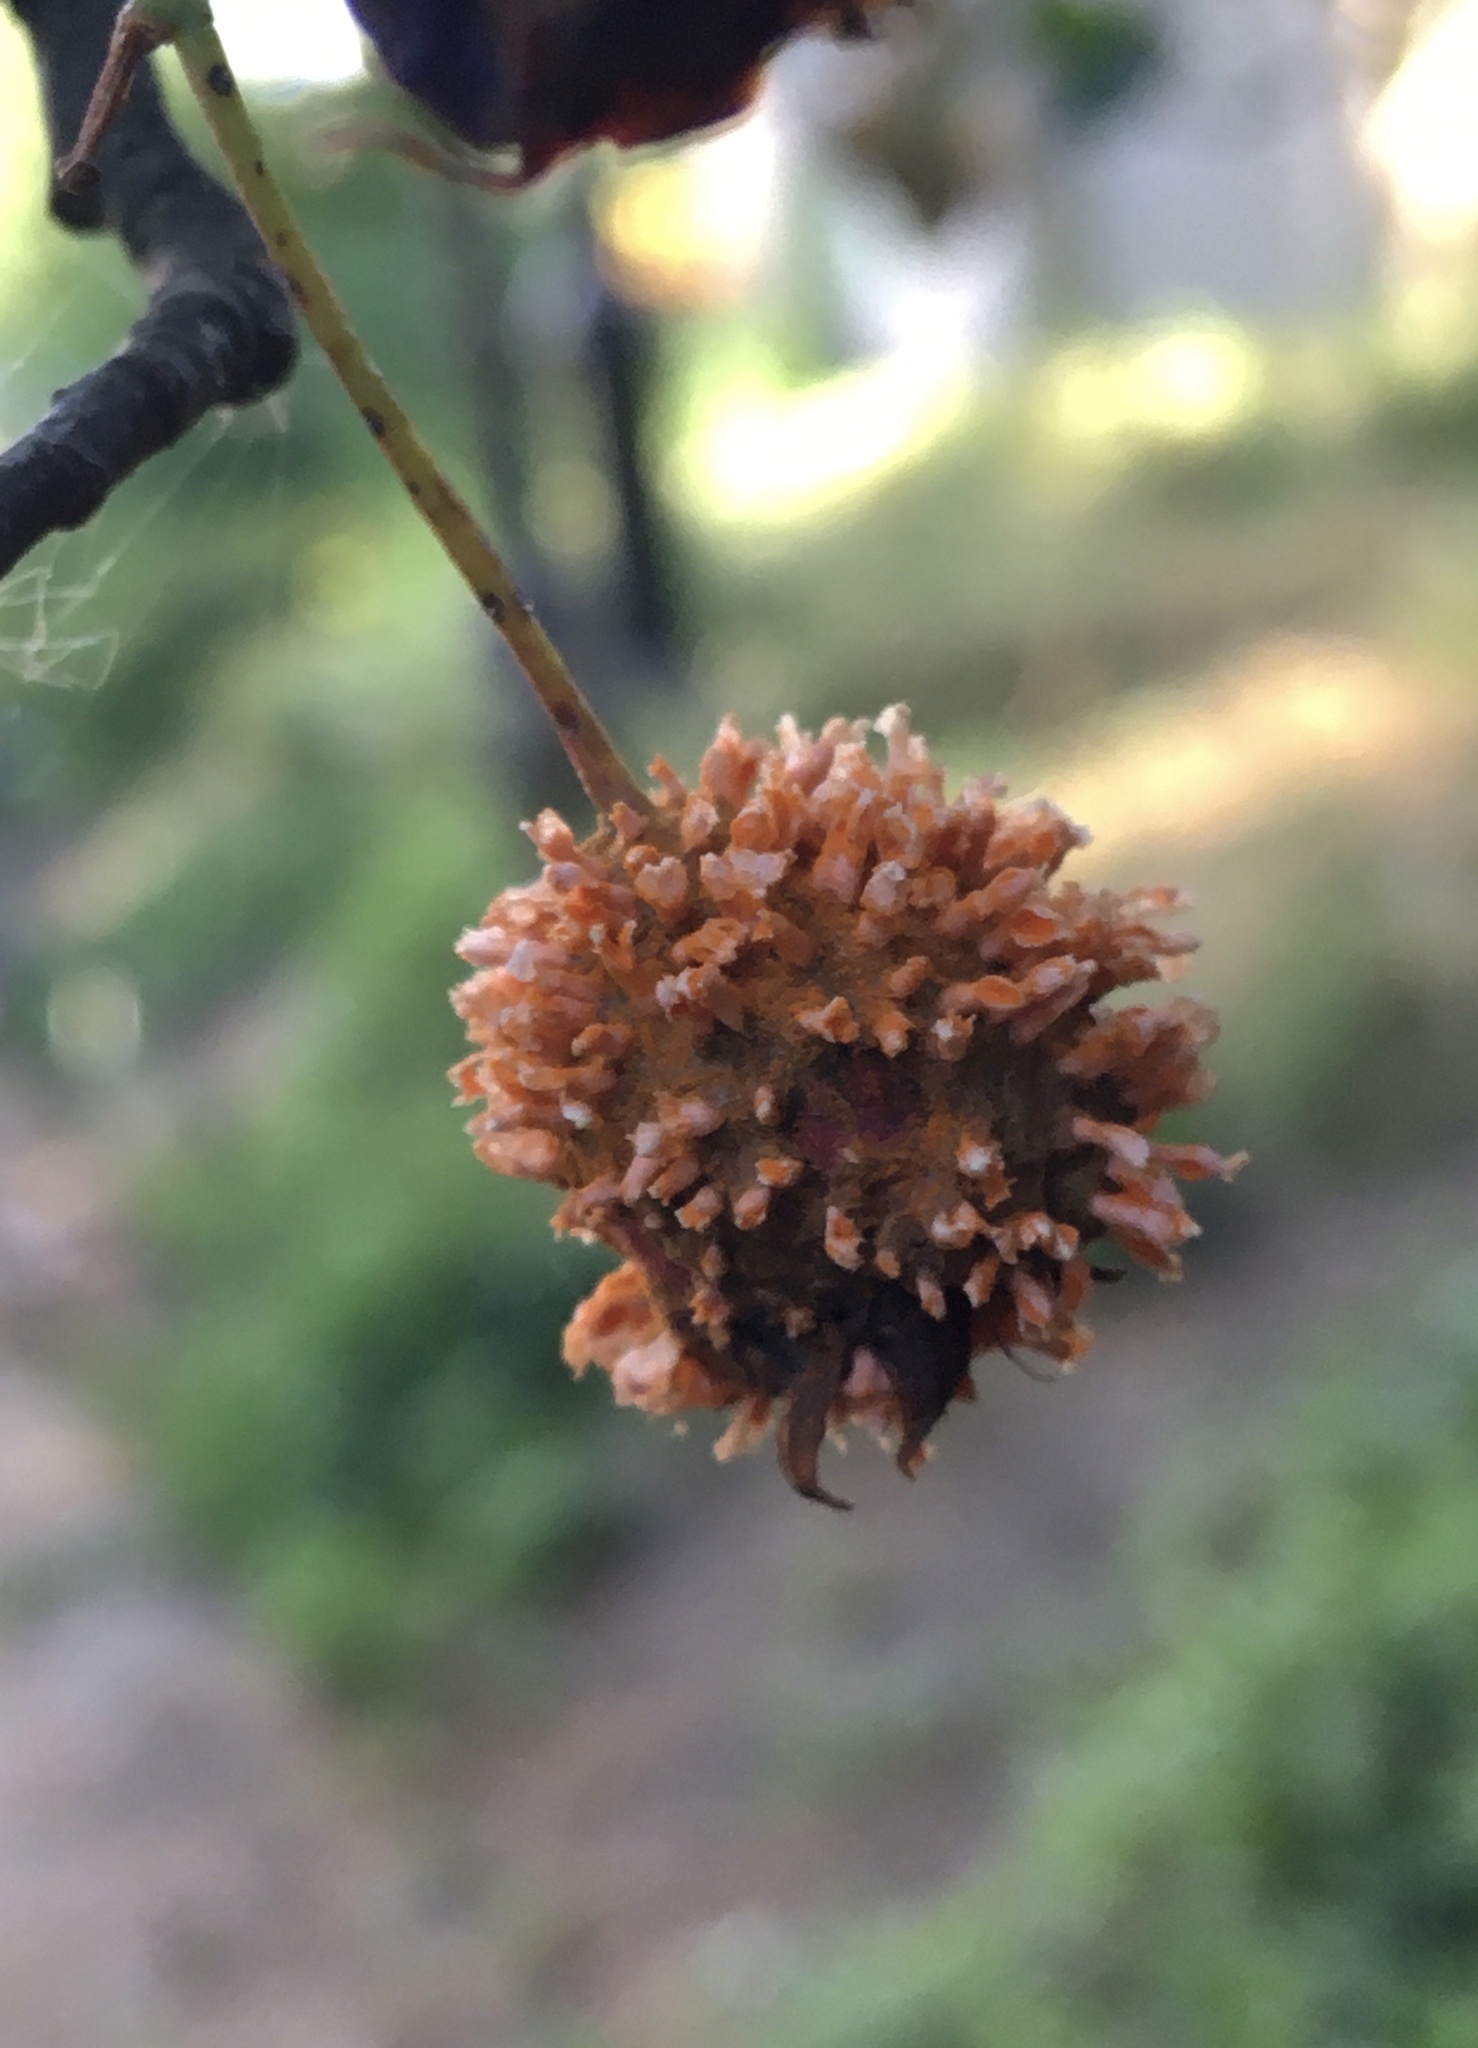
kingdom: Fungi
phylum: Basidiomycota
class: Pucciniomycetes
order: Pucciniales
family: Gymnosporangiaceae
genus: Gymnosporangium
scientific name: Gymnosporangium clavipes
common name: Quince rust
